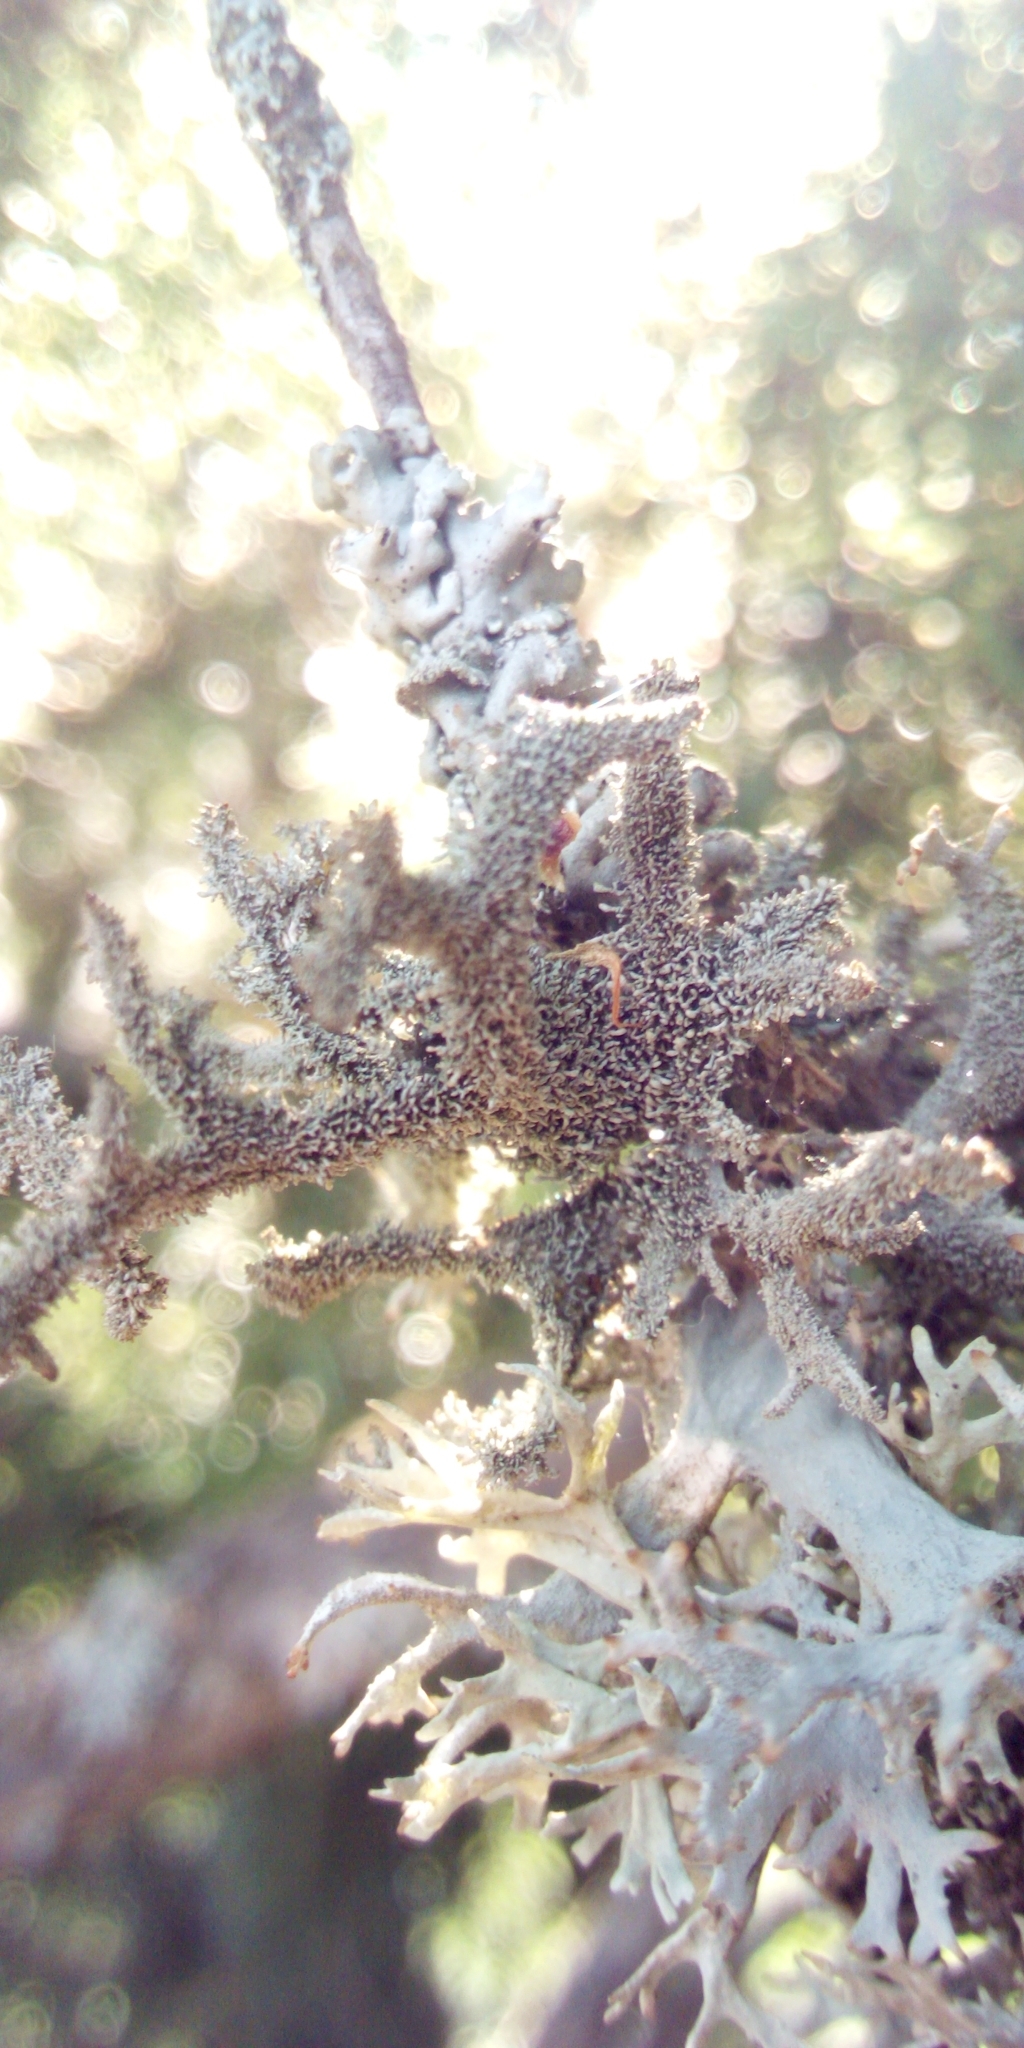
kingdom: Fungi
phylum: Ascomycota
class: Lecanoromycetes
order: Lecanorales
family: Parmeliaceae
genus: Pseudevernia
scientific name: Pseudevernia furfuracea
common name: Tree moss
